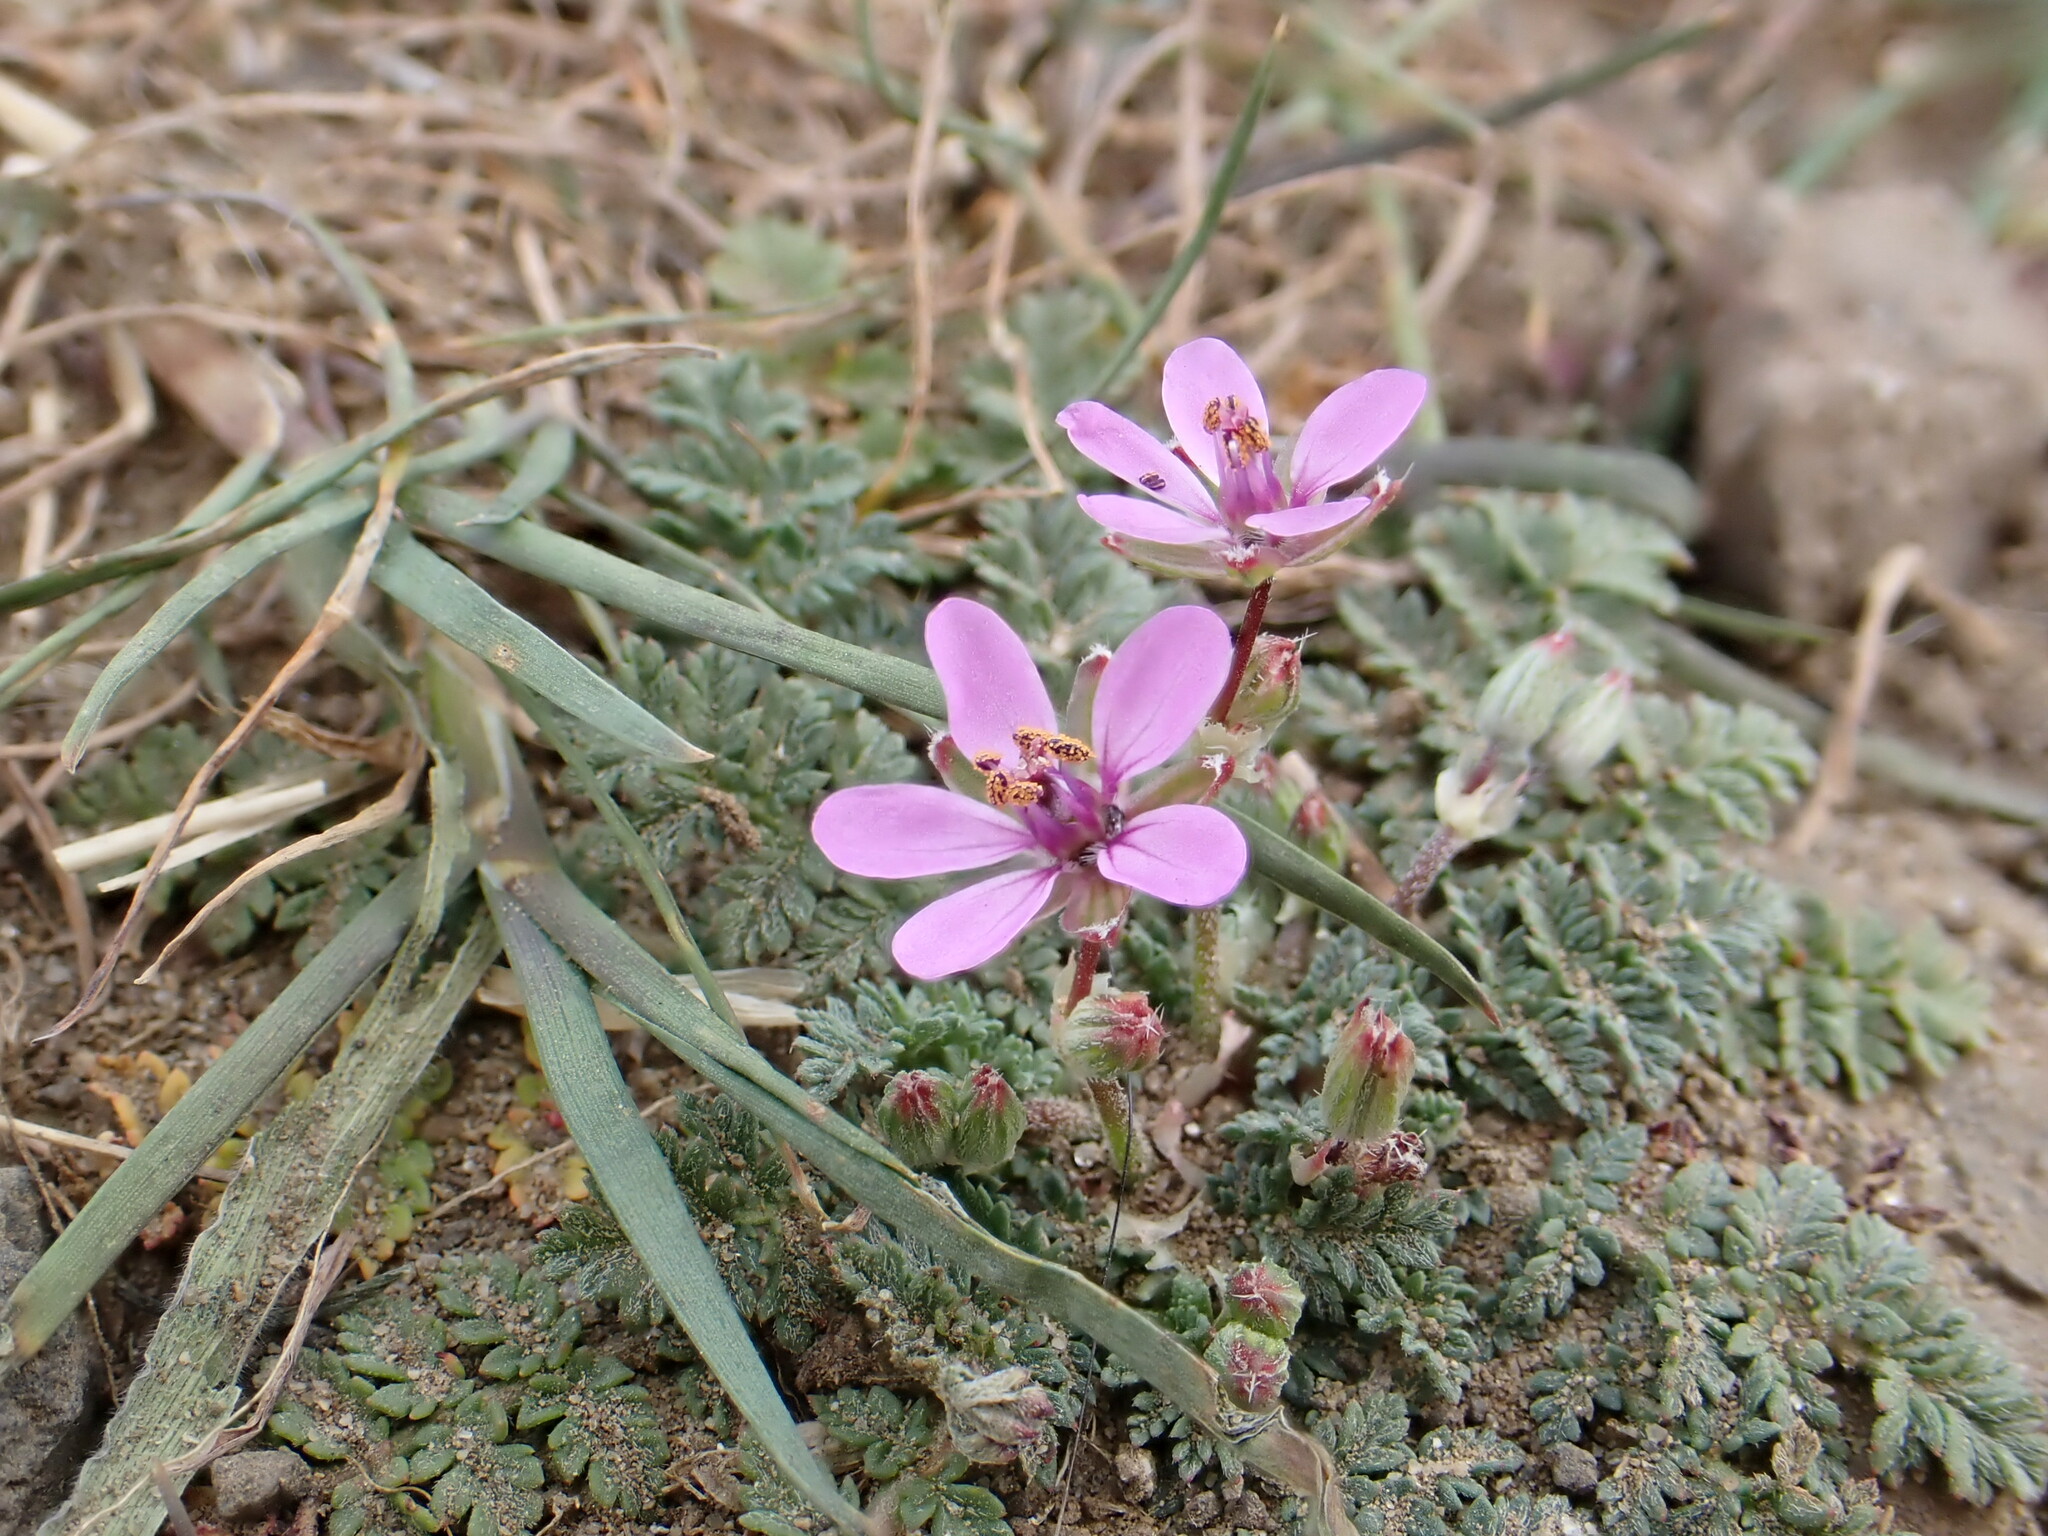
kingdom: Plantae
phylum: Tracheophyta
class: Magnoliopsida
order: Geraniales
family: Geraniaceae
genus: Erodium
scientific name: Erodium cicutarium
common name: Common stork's-bill
